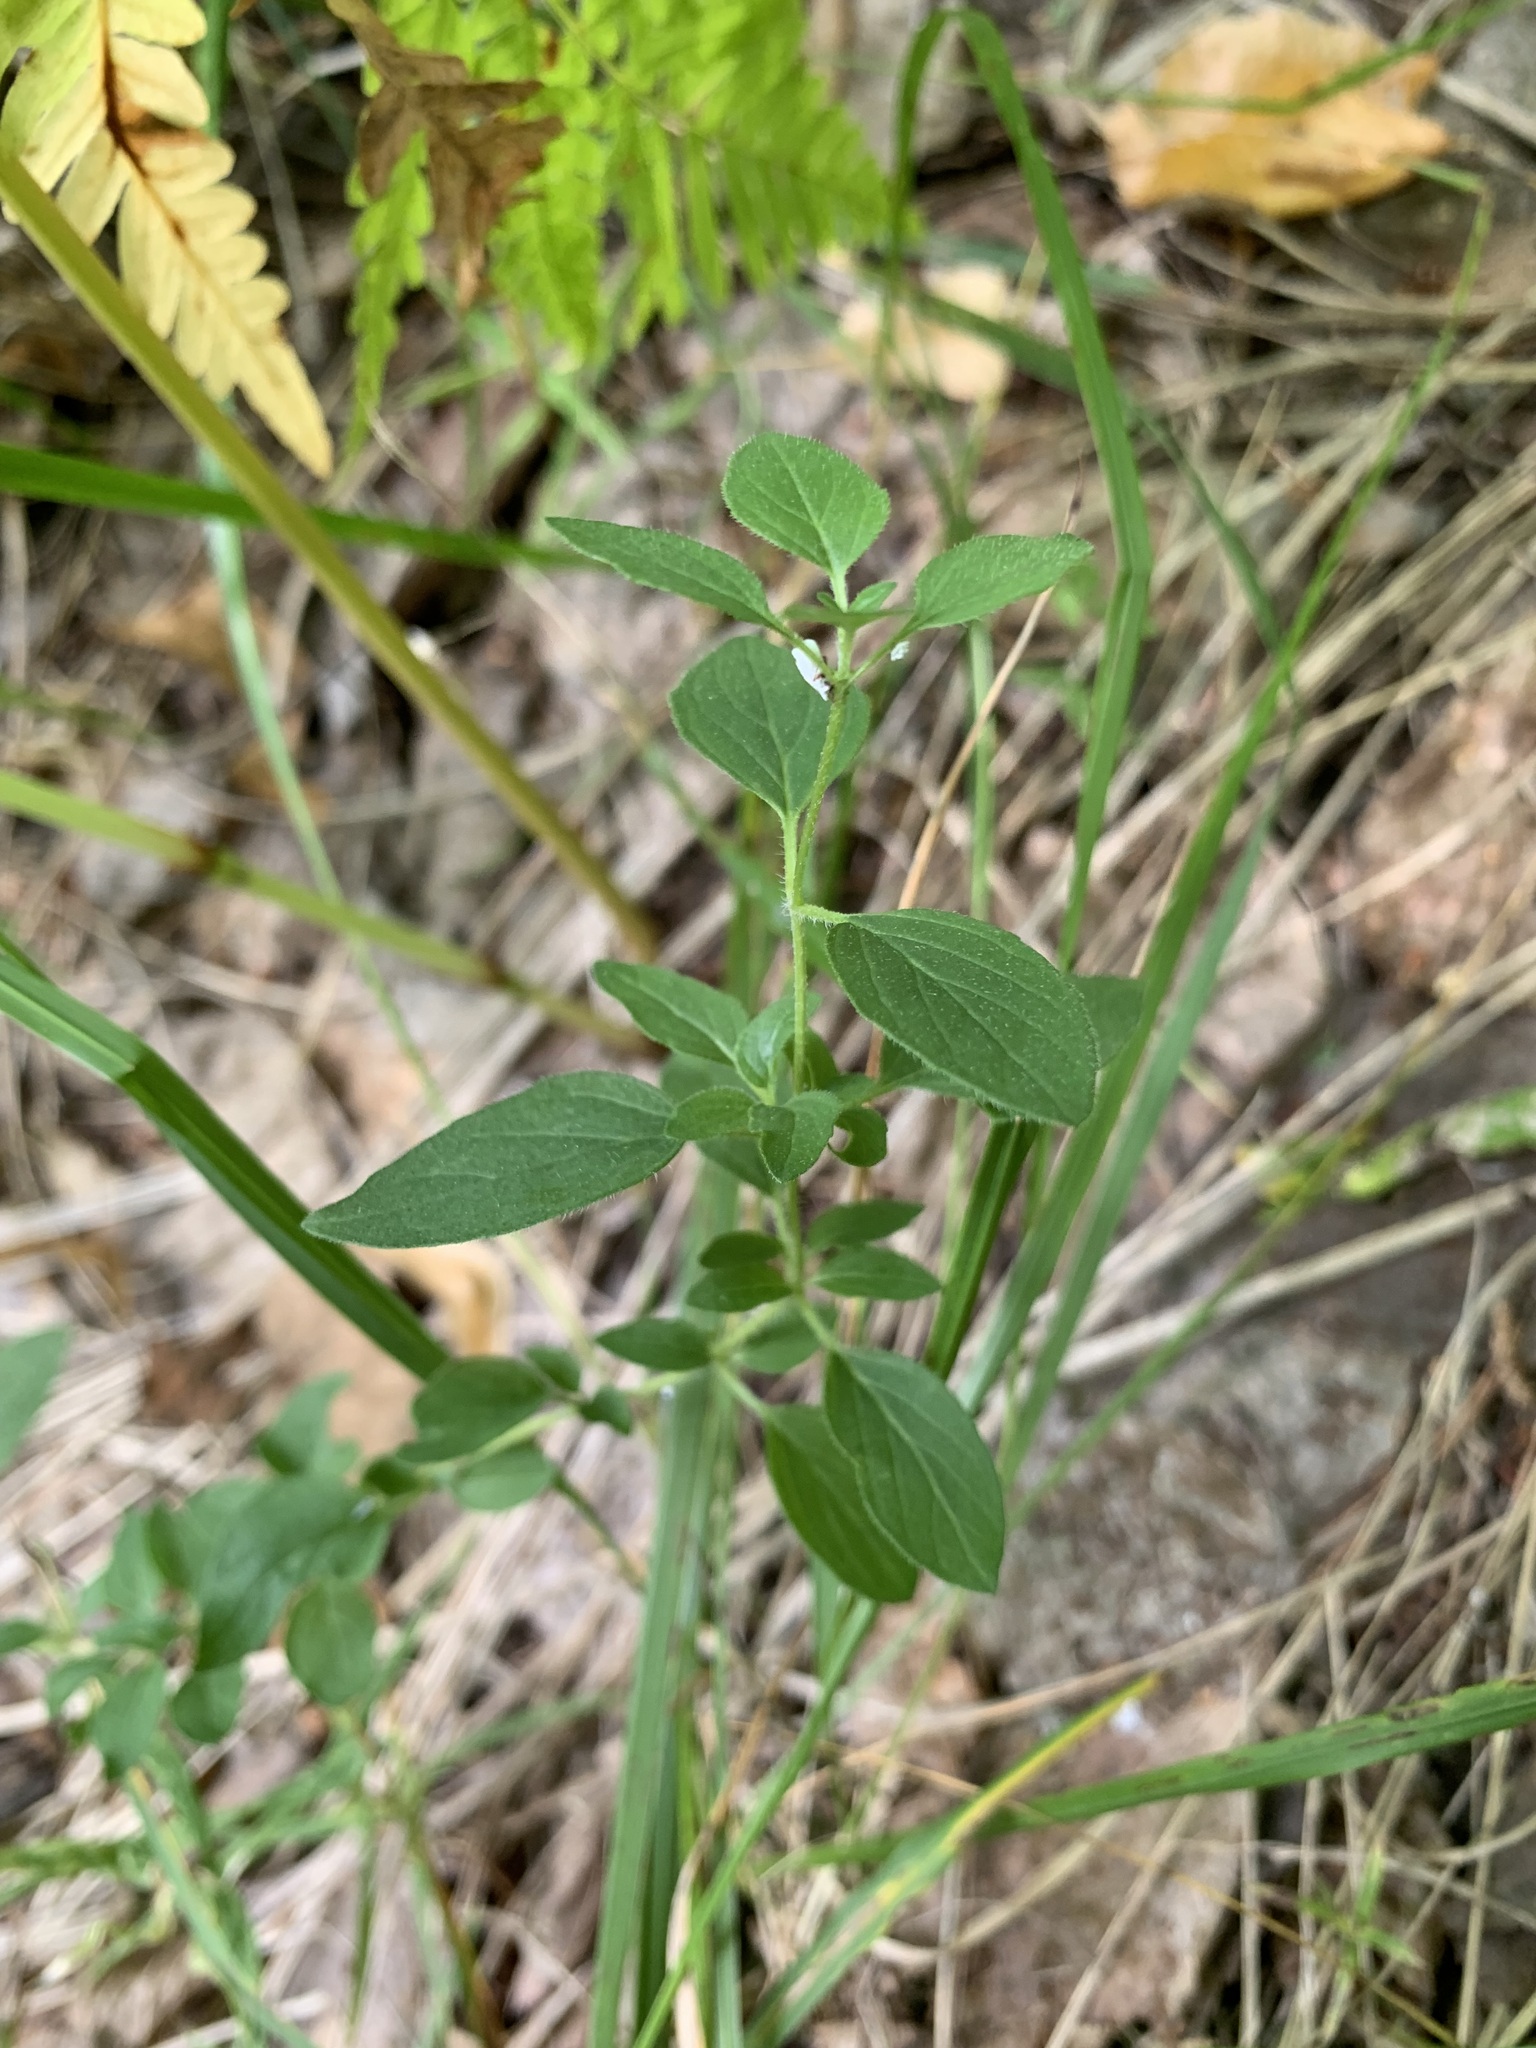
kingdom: Plantae
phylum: Tracheophyta
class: Magnoliopsida
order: Lamiales
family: Lamiaceae
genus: Origanum
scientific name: Origanum vulgare
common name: Wild marjoram
